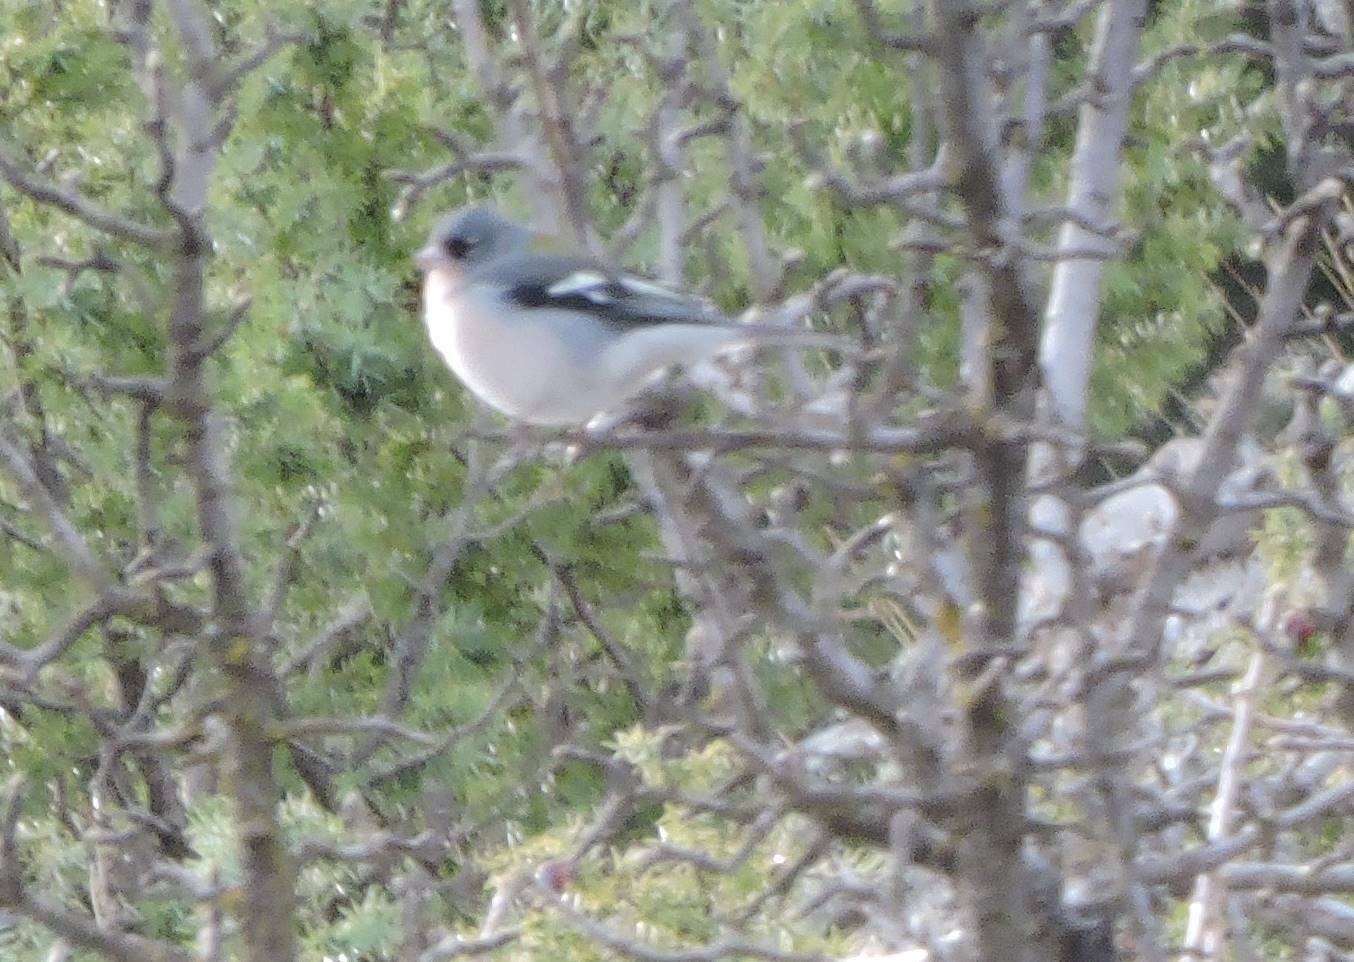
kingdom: Animalia
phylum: Chordata
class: Aves
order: Passeriformes
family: Fringillidae
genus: Fringilla
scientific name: Fringilla spodiogenys
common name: African chaffinch
